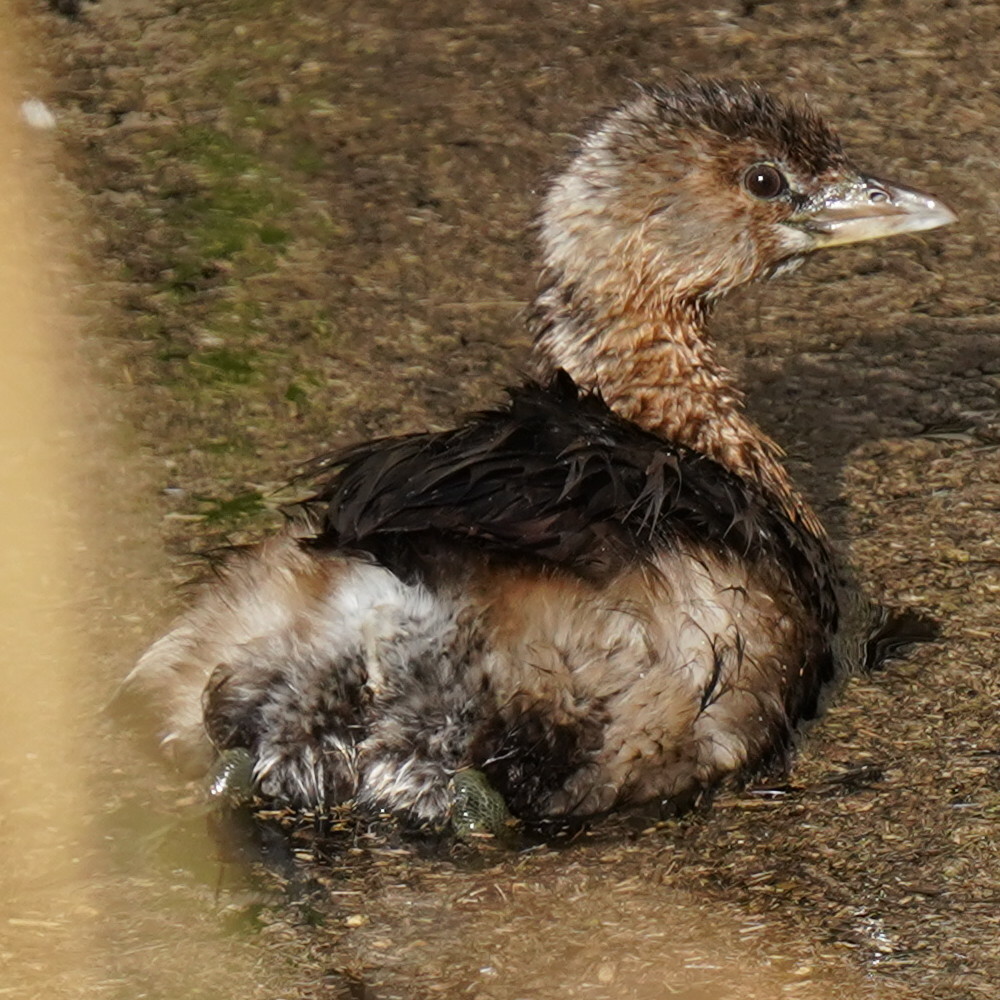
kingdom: Animalia
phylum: Chordata
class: Aves
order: Podicipediformes
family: Podicipedidae
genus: Podilymbus
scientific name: Podilymbus podiceps
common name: Pied-billed grebe
